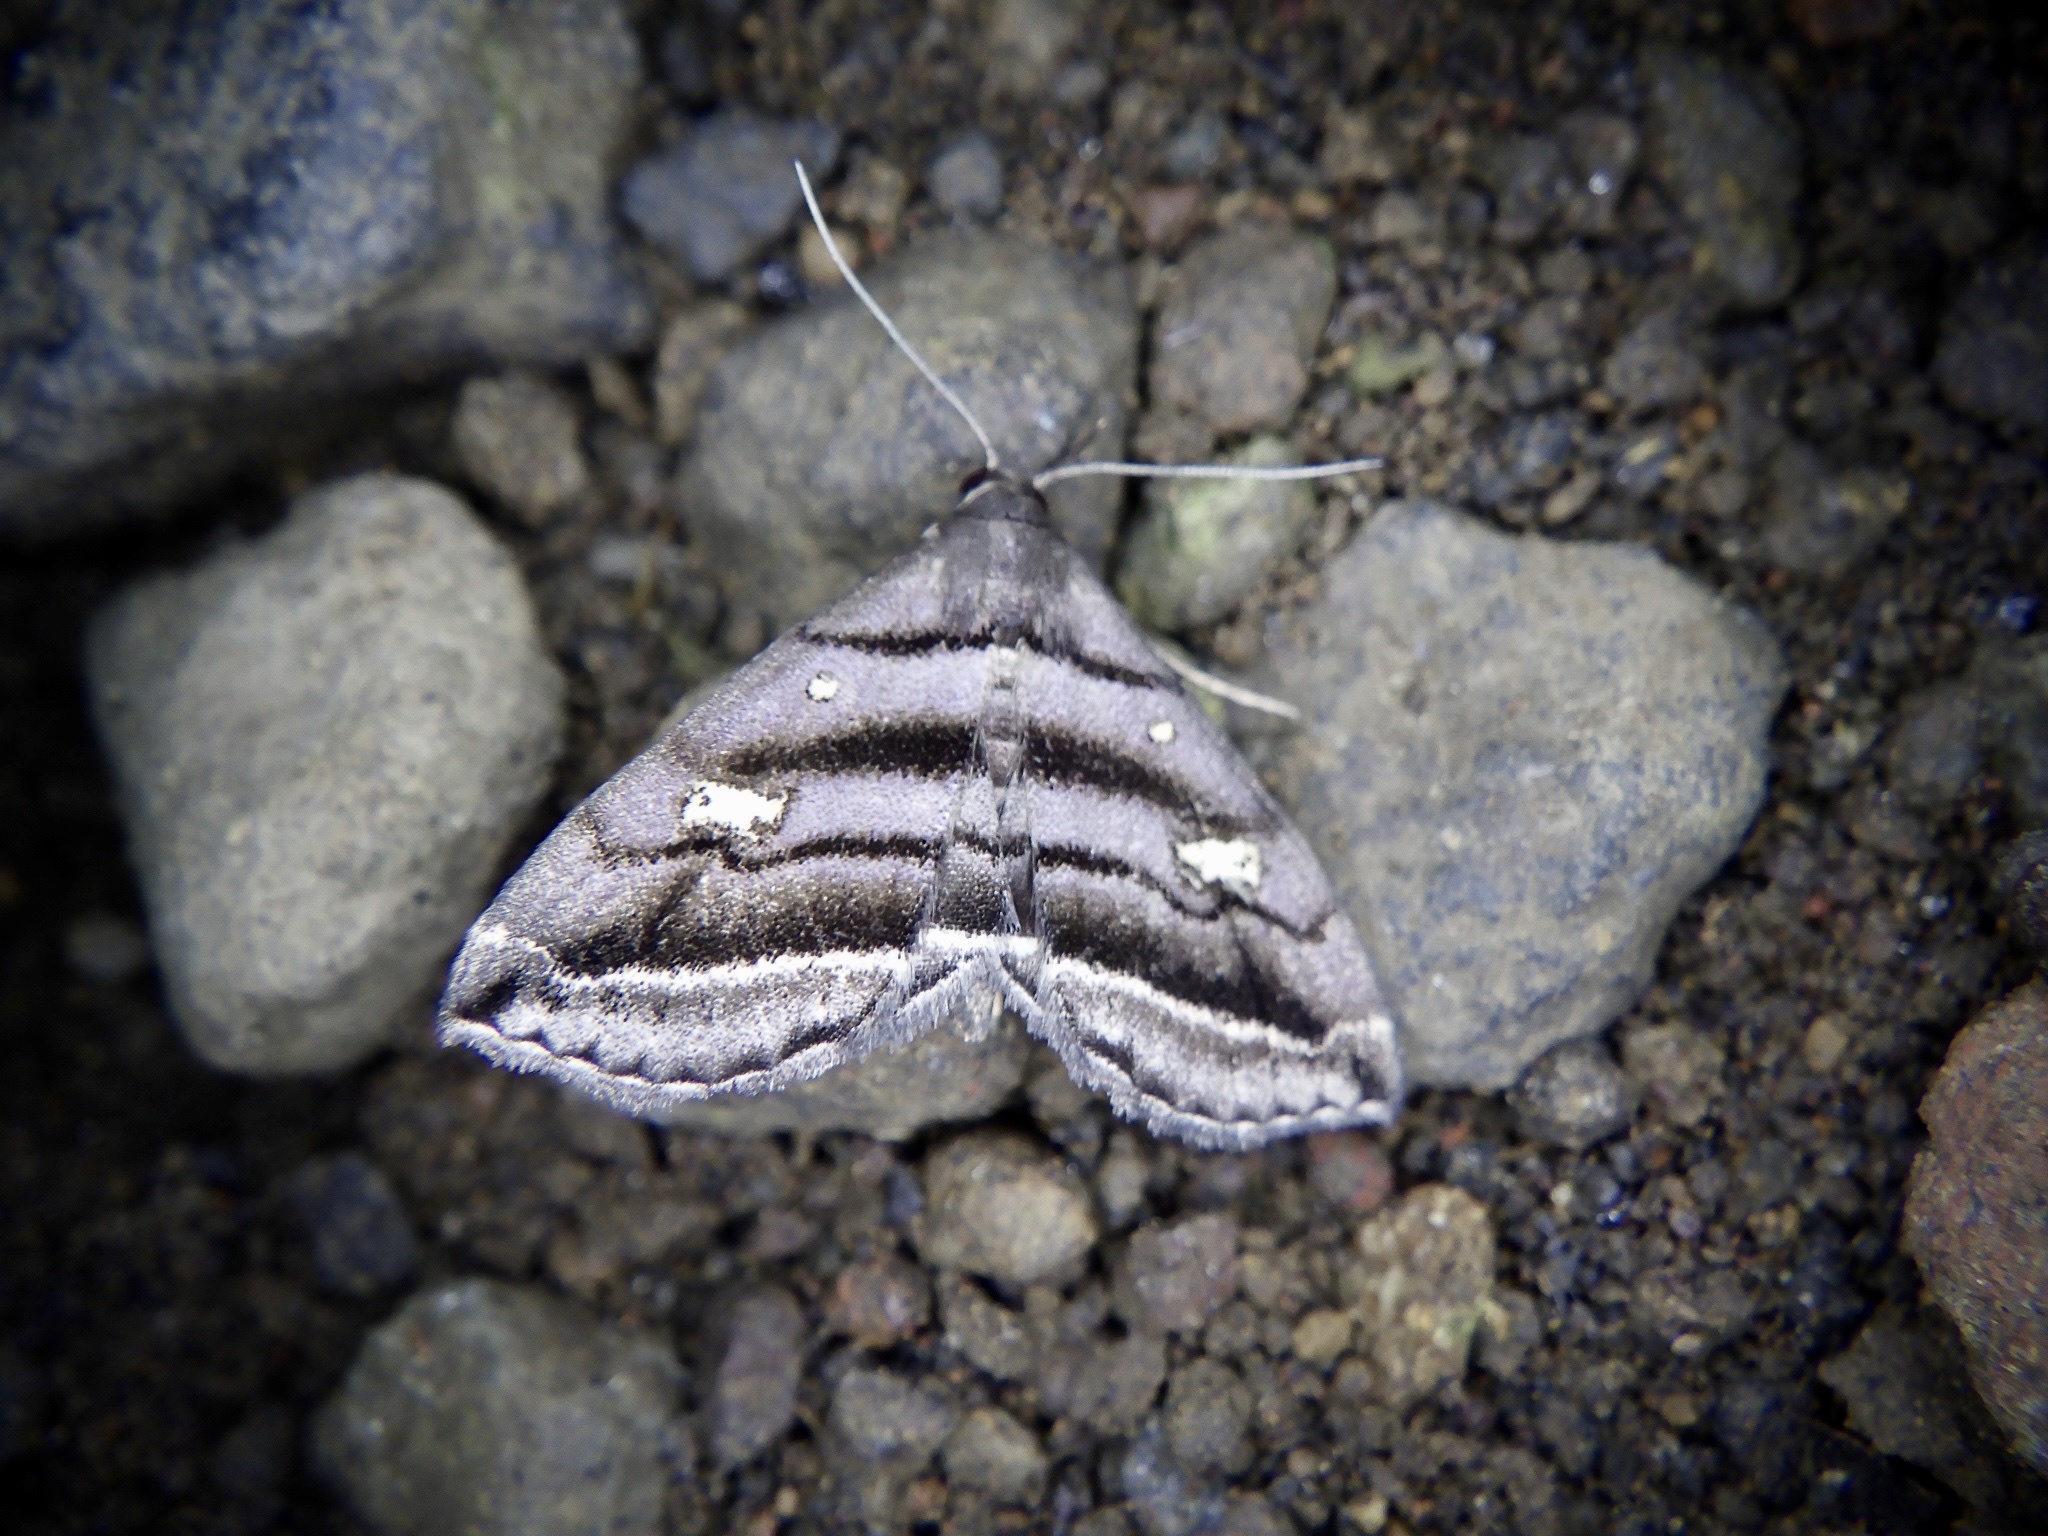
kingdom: Animalia
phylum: Arthropoda
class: Insecta
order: Lepidoptera
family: Erebidae
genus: Paracolax
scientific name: Paracolax pryeri
